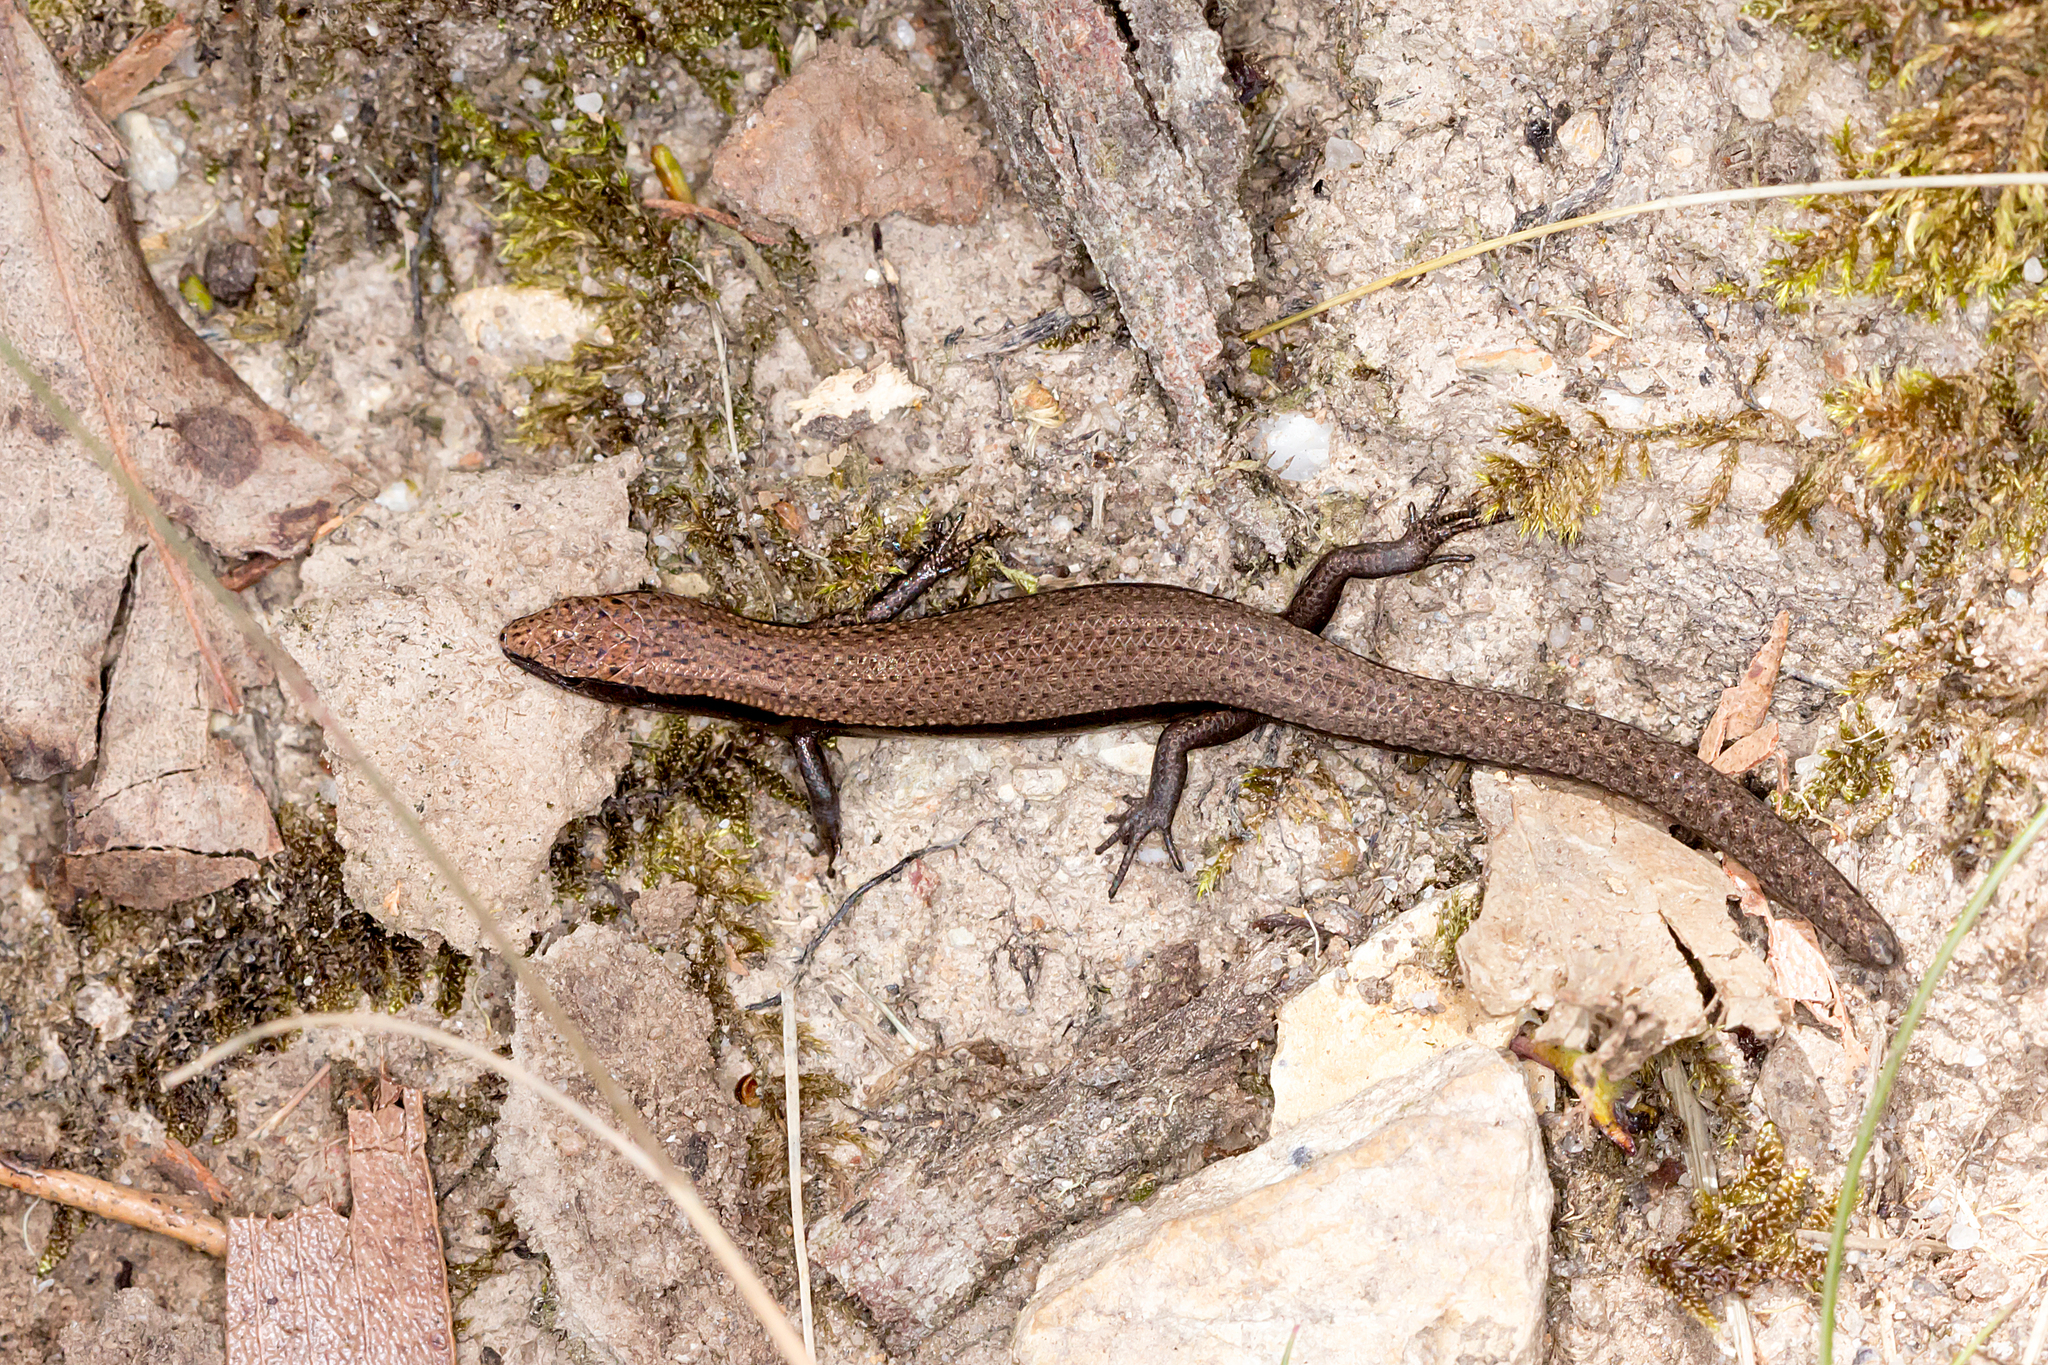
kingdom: Animalia
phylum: Chordata
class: Squamata
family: Scincidae
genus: Carinascincus
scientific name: Carinascincus coventryi
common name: Southern forest cool-skink
